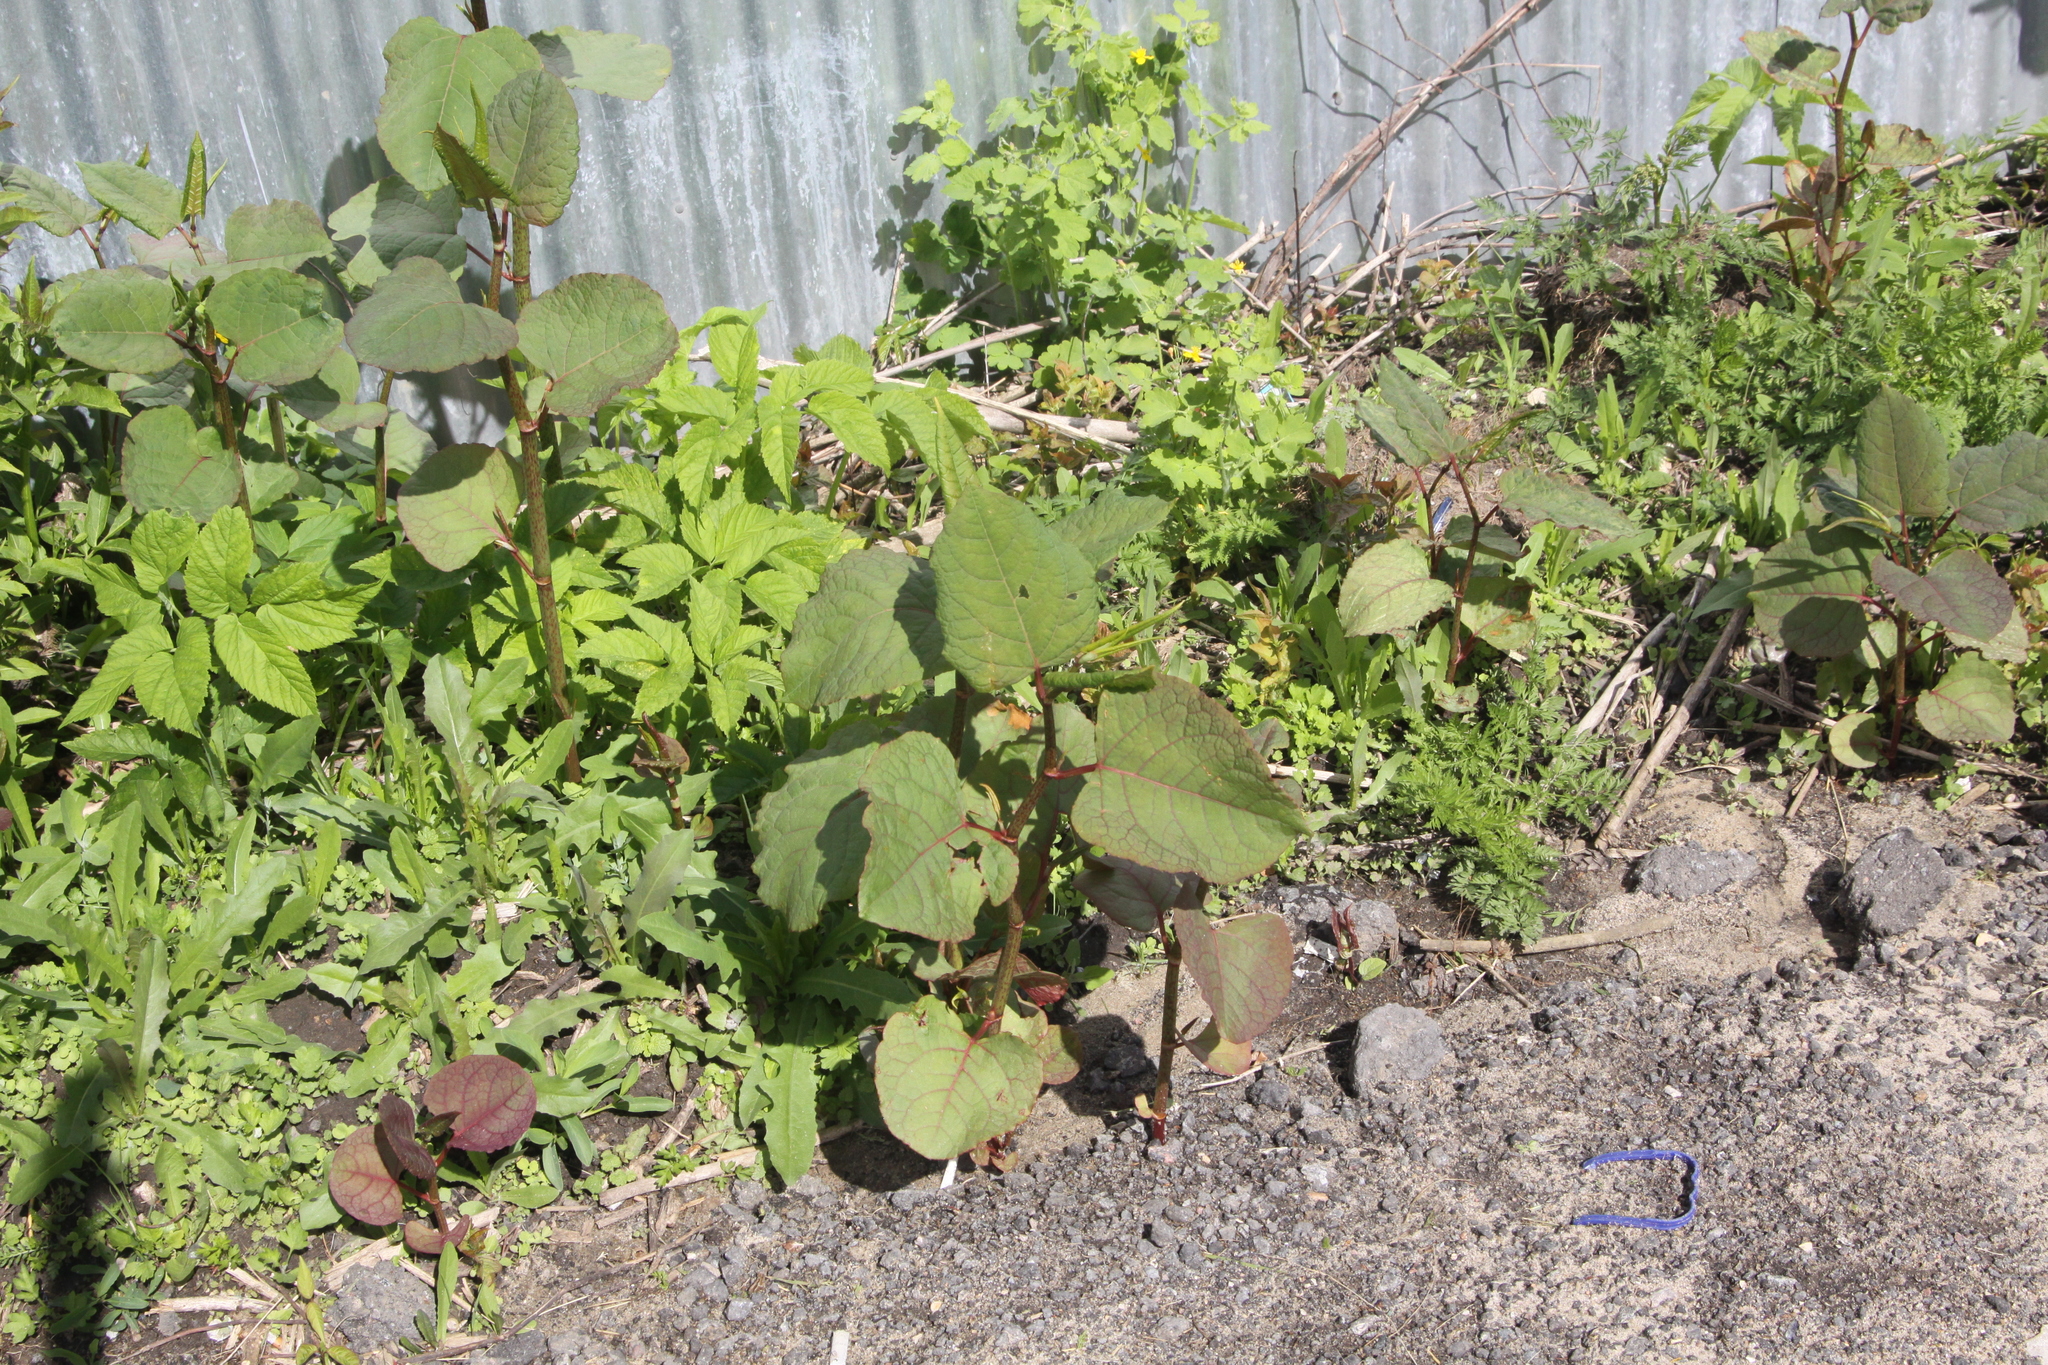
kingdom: Plantae
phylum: Tracheophyta
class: Magnoliopsida
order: Caryophyllales
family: Polygonaceae
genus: Reynoutria
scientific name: Reynoutria bohemica
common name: Bohemian knotweed
